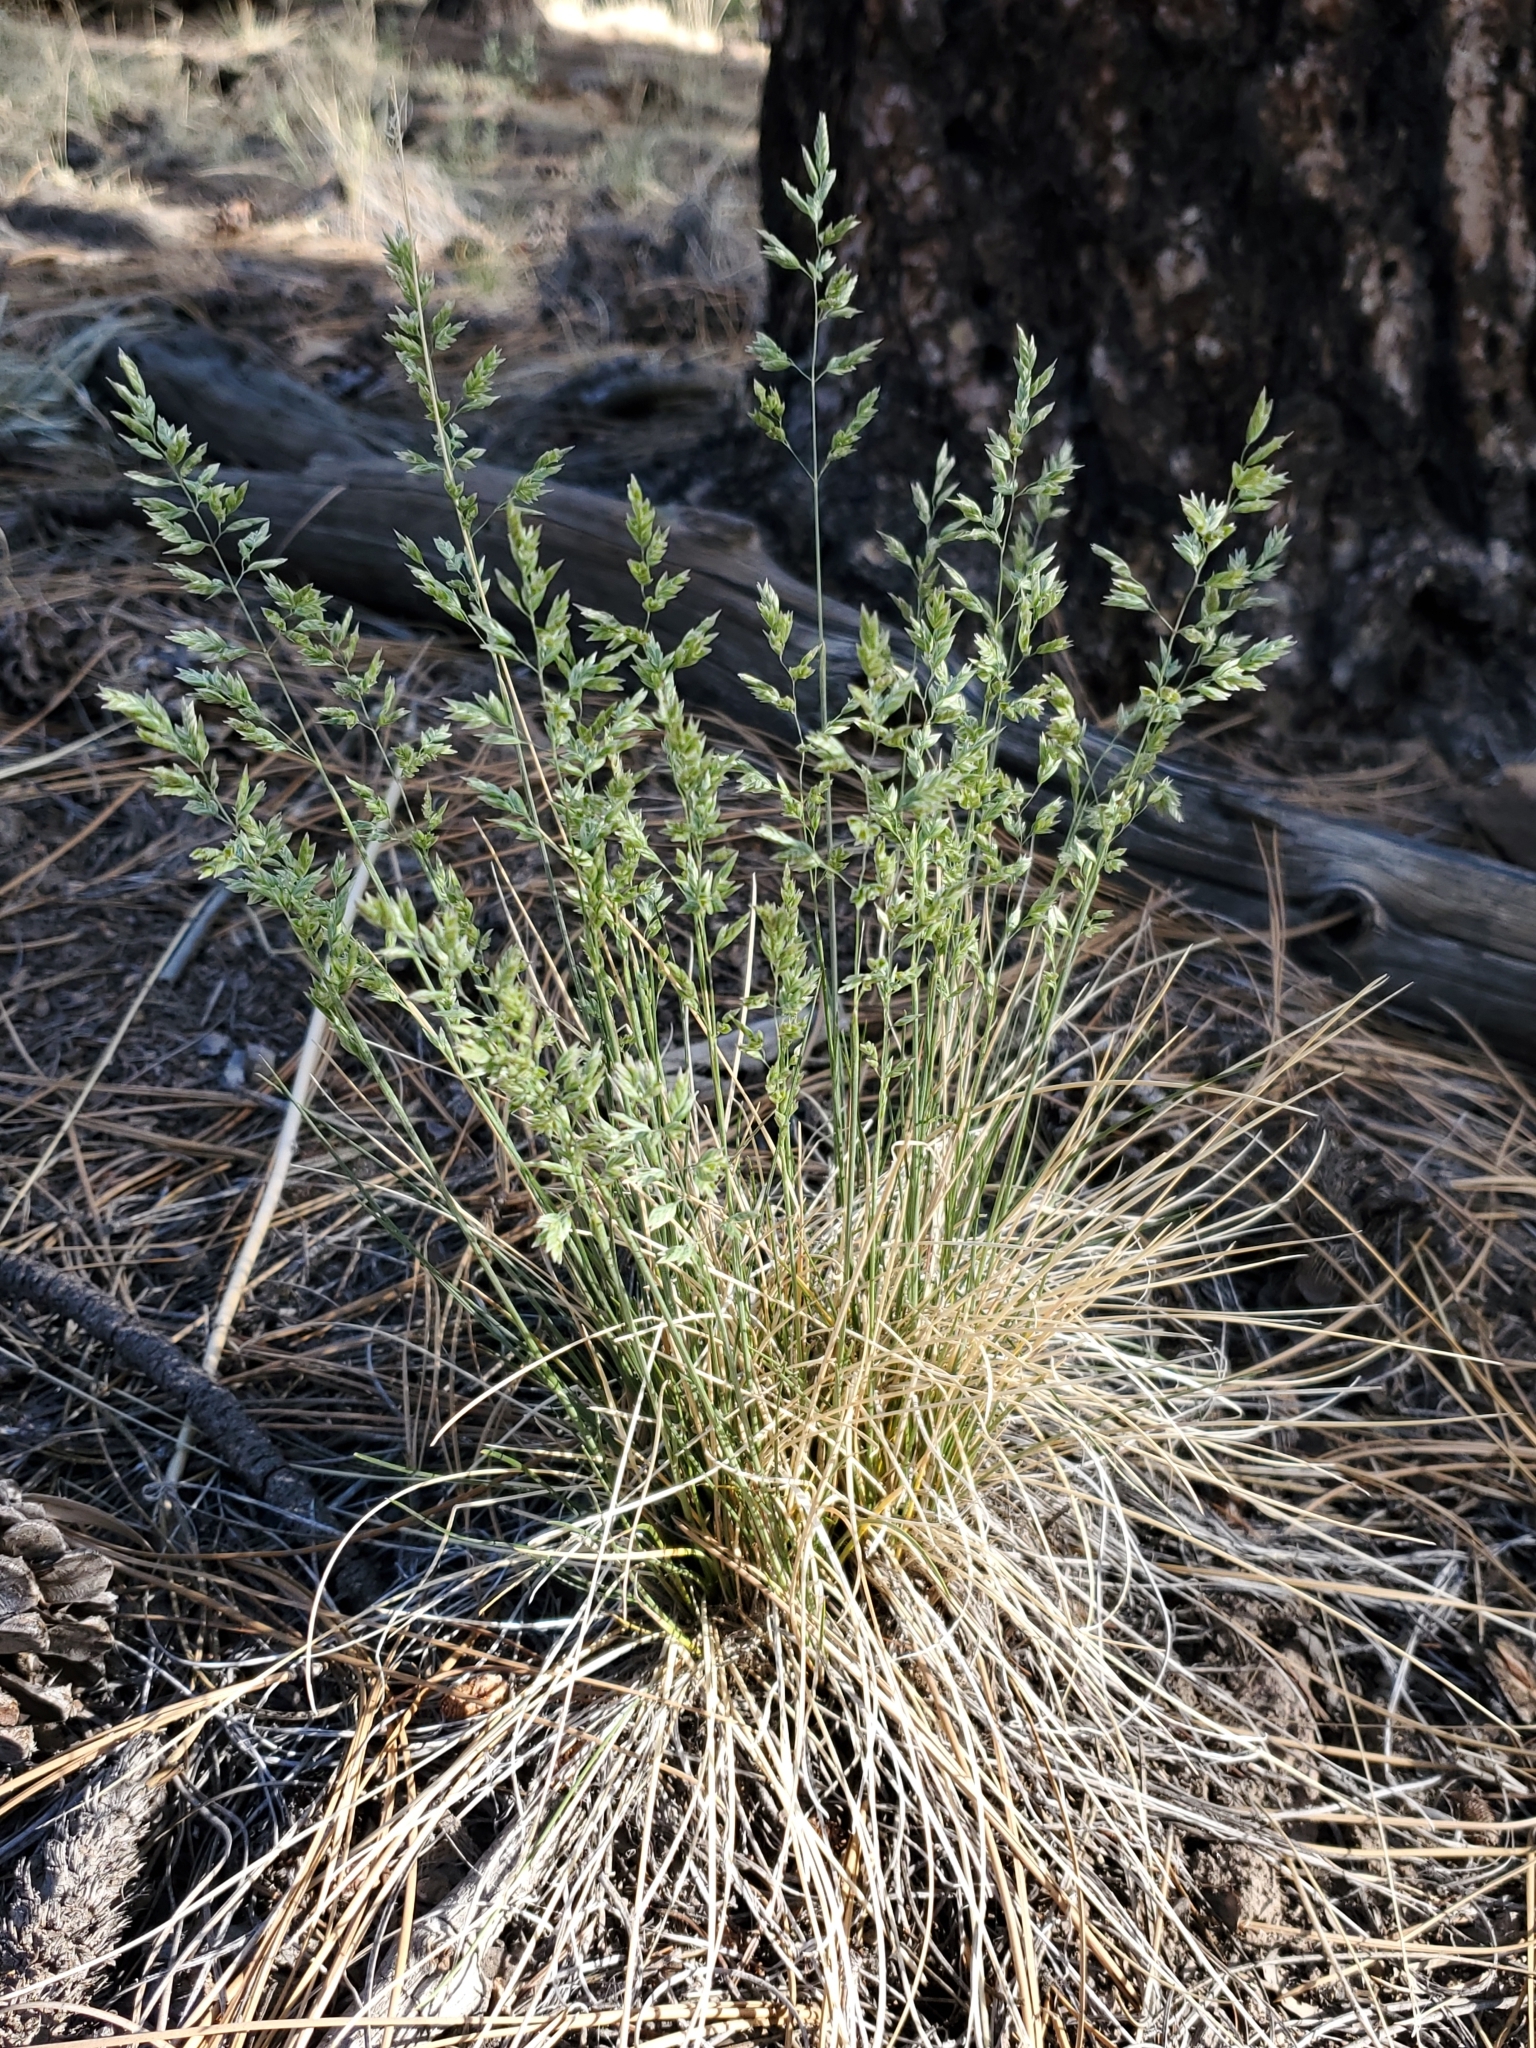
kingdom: Plantae
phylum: Tracheophyta
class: Liliopsida
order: Poales
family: Poaceae
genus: Poa
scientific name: Poa fendleriana
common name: Mutton bluegrass
